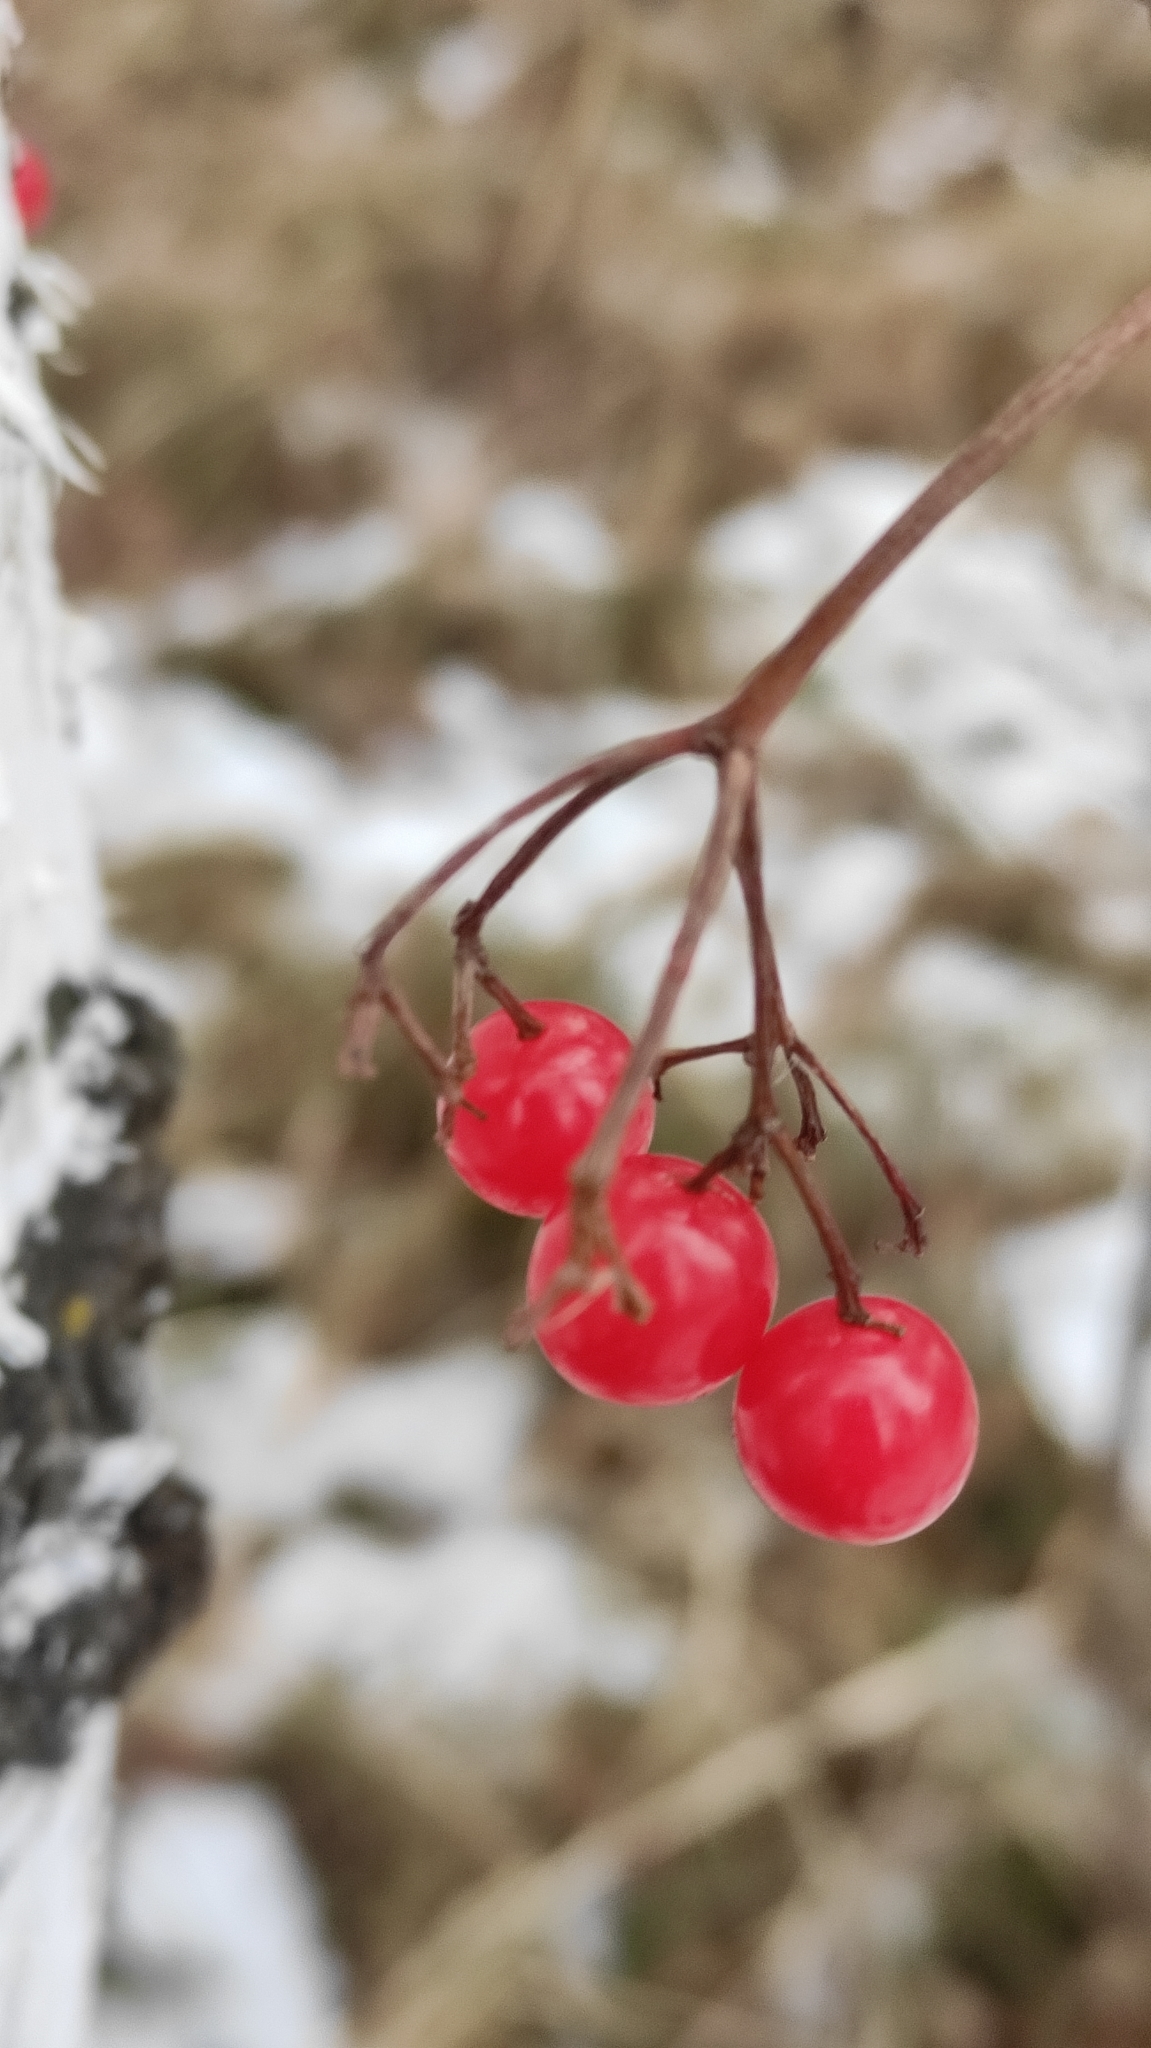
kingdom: Plantae
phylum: Tracheophyta
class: Magnoliopsida
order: Dipsacales
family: Viburnaceae
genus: Viburnum
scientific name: Viburnum opulus
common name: Guelder-rose
